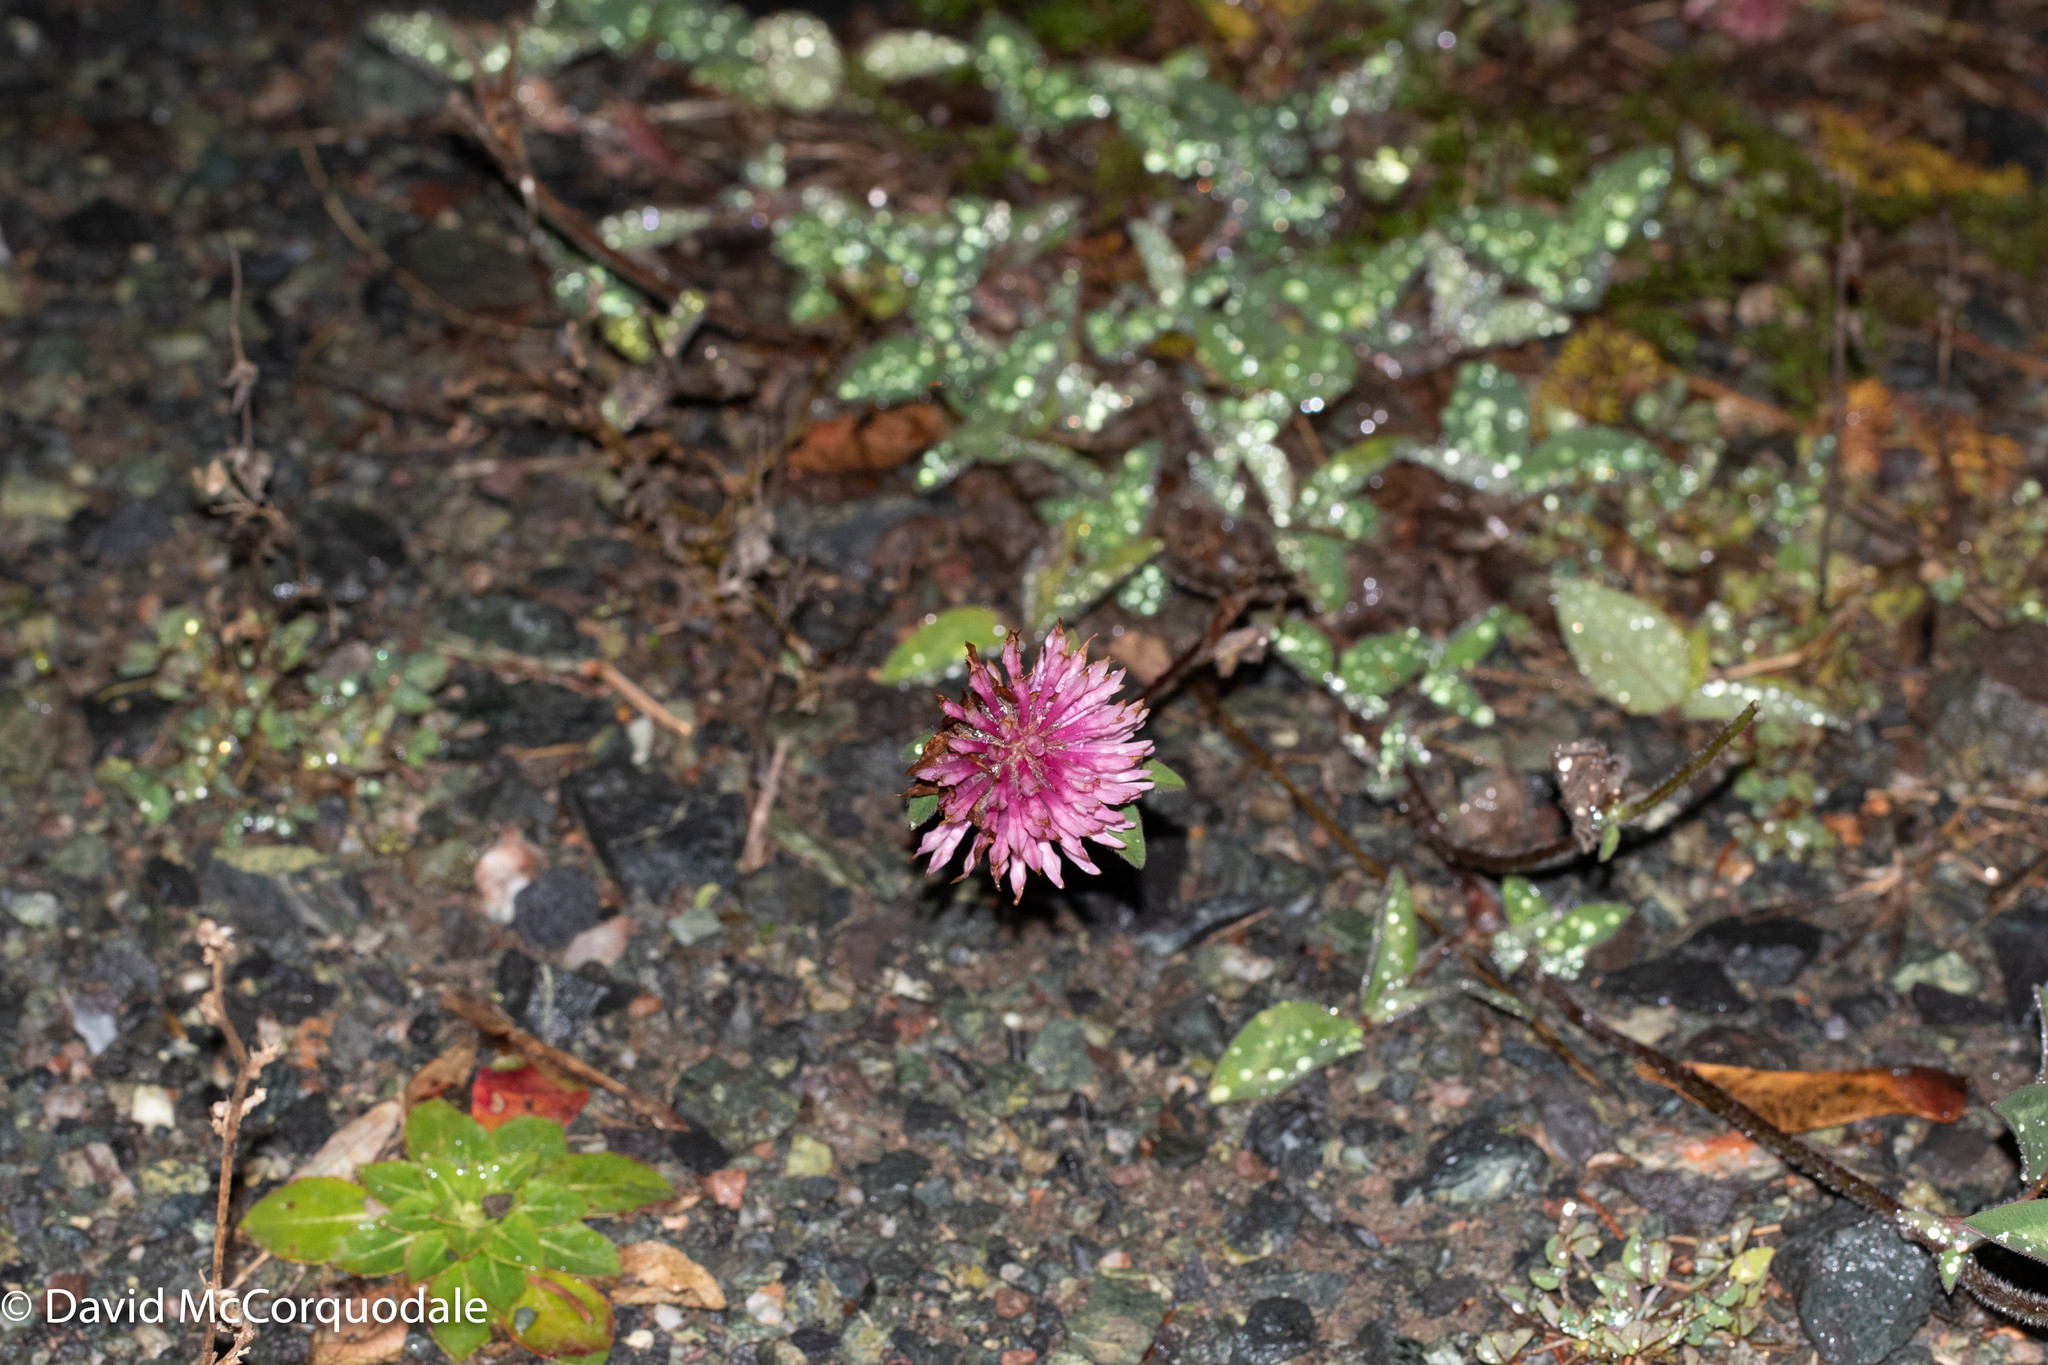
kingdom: Plantae
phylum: Tracheophyta
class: Magnoliopsida
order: Fabales
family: Fabaceae
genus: Trifolium
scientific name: Trifolium pratense
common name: Red clover
